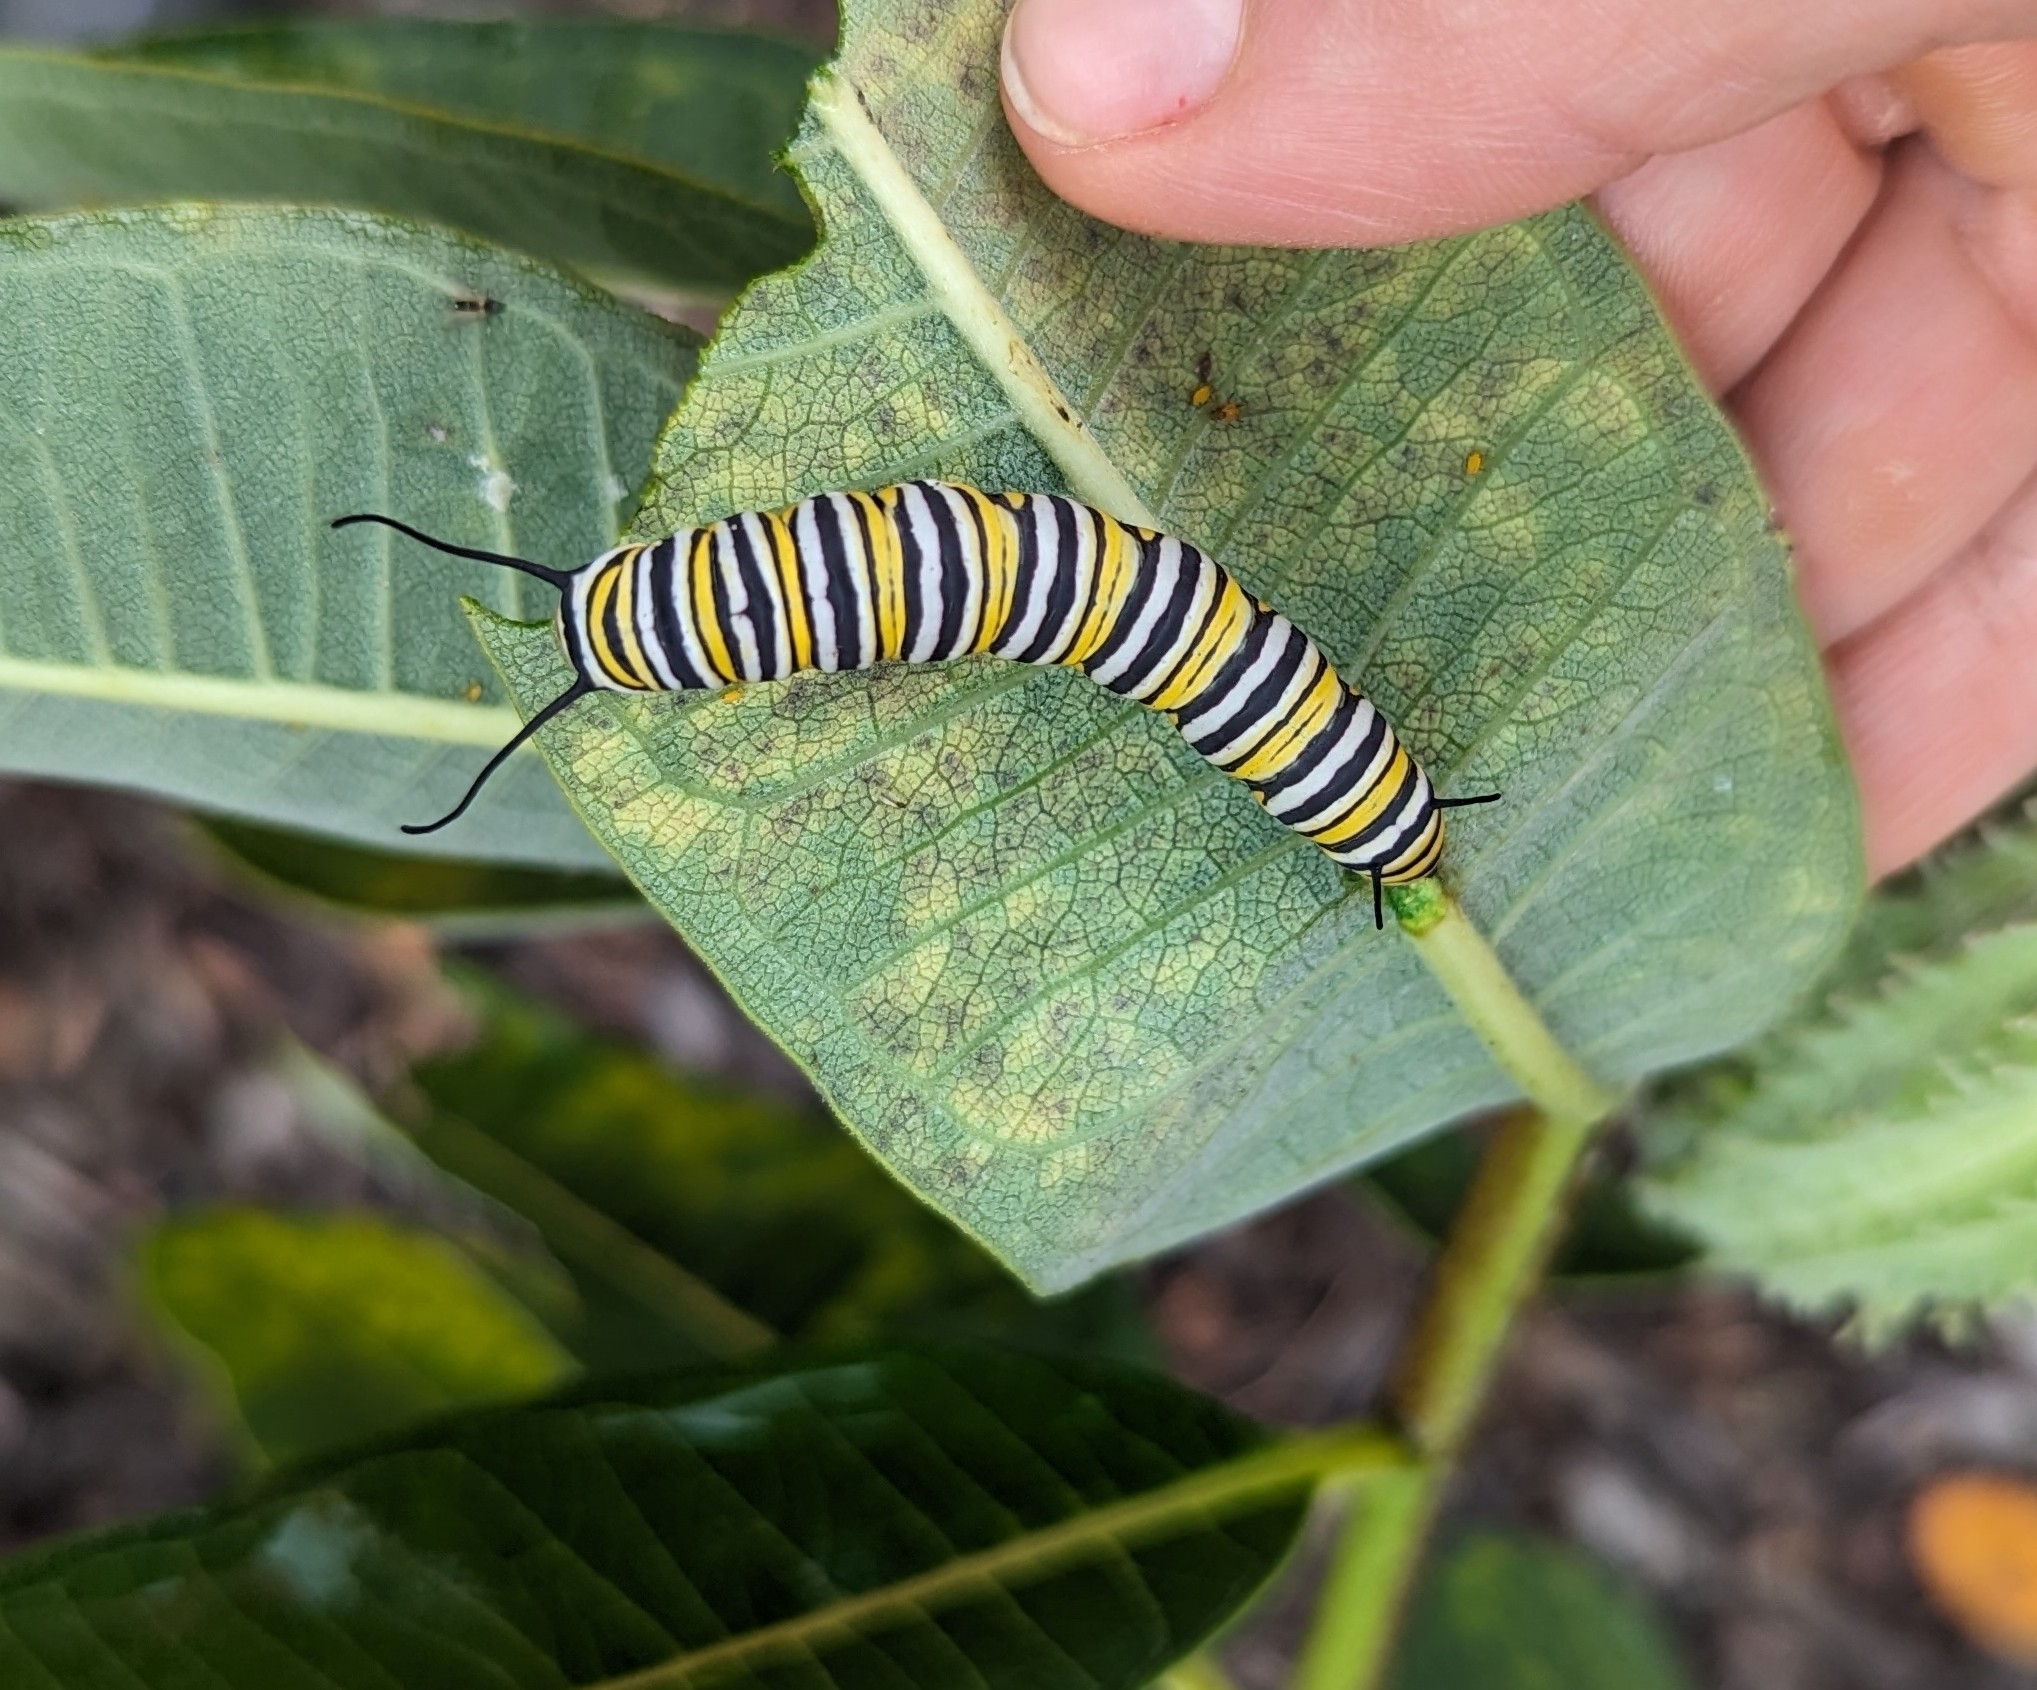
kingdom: Animalia
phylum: Arthropoda
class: Insecta
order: Lepidoptera
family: Nymphalidae
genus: Danaus
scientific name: Danaus plexippus
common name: Monarch
